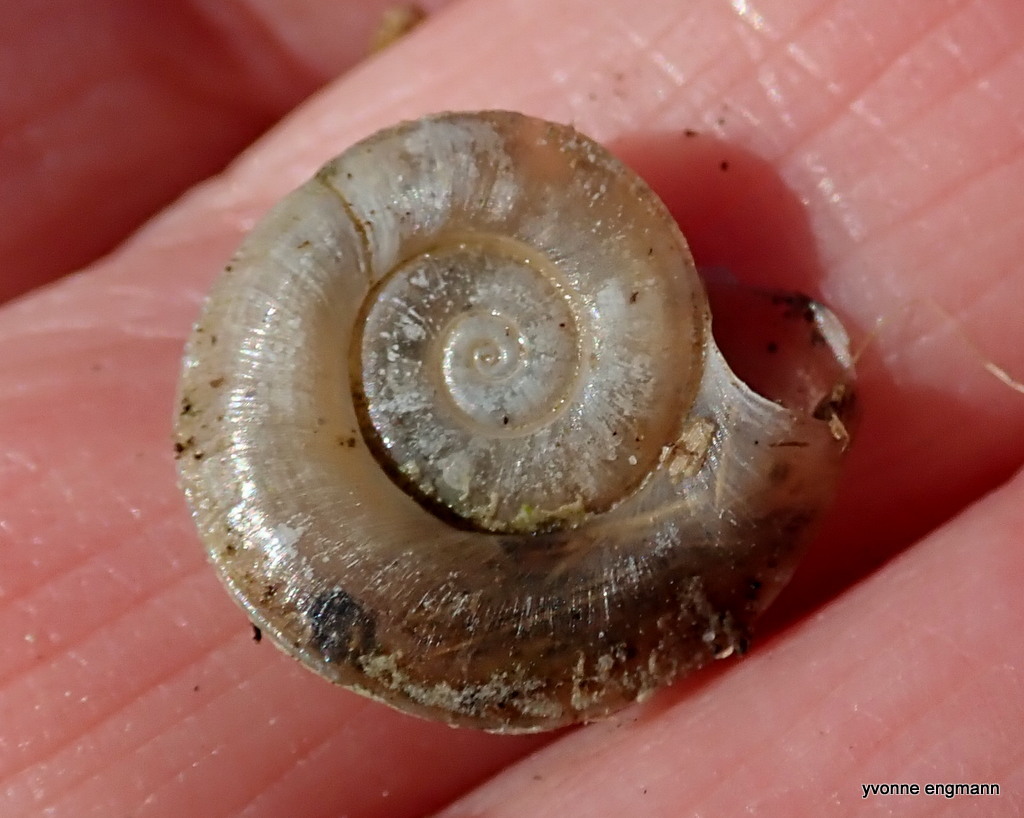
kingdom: Animalia
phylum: Mollusca
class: Gastropoda
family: Planorbidae
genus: Planorbis
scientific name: Planorbis carinatus
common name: Keeled ramshorn
